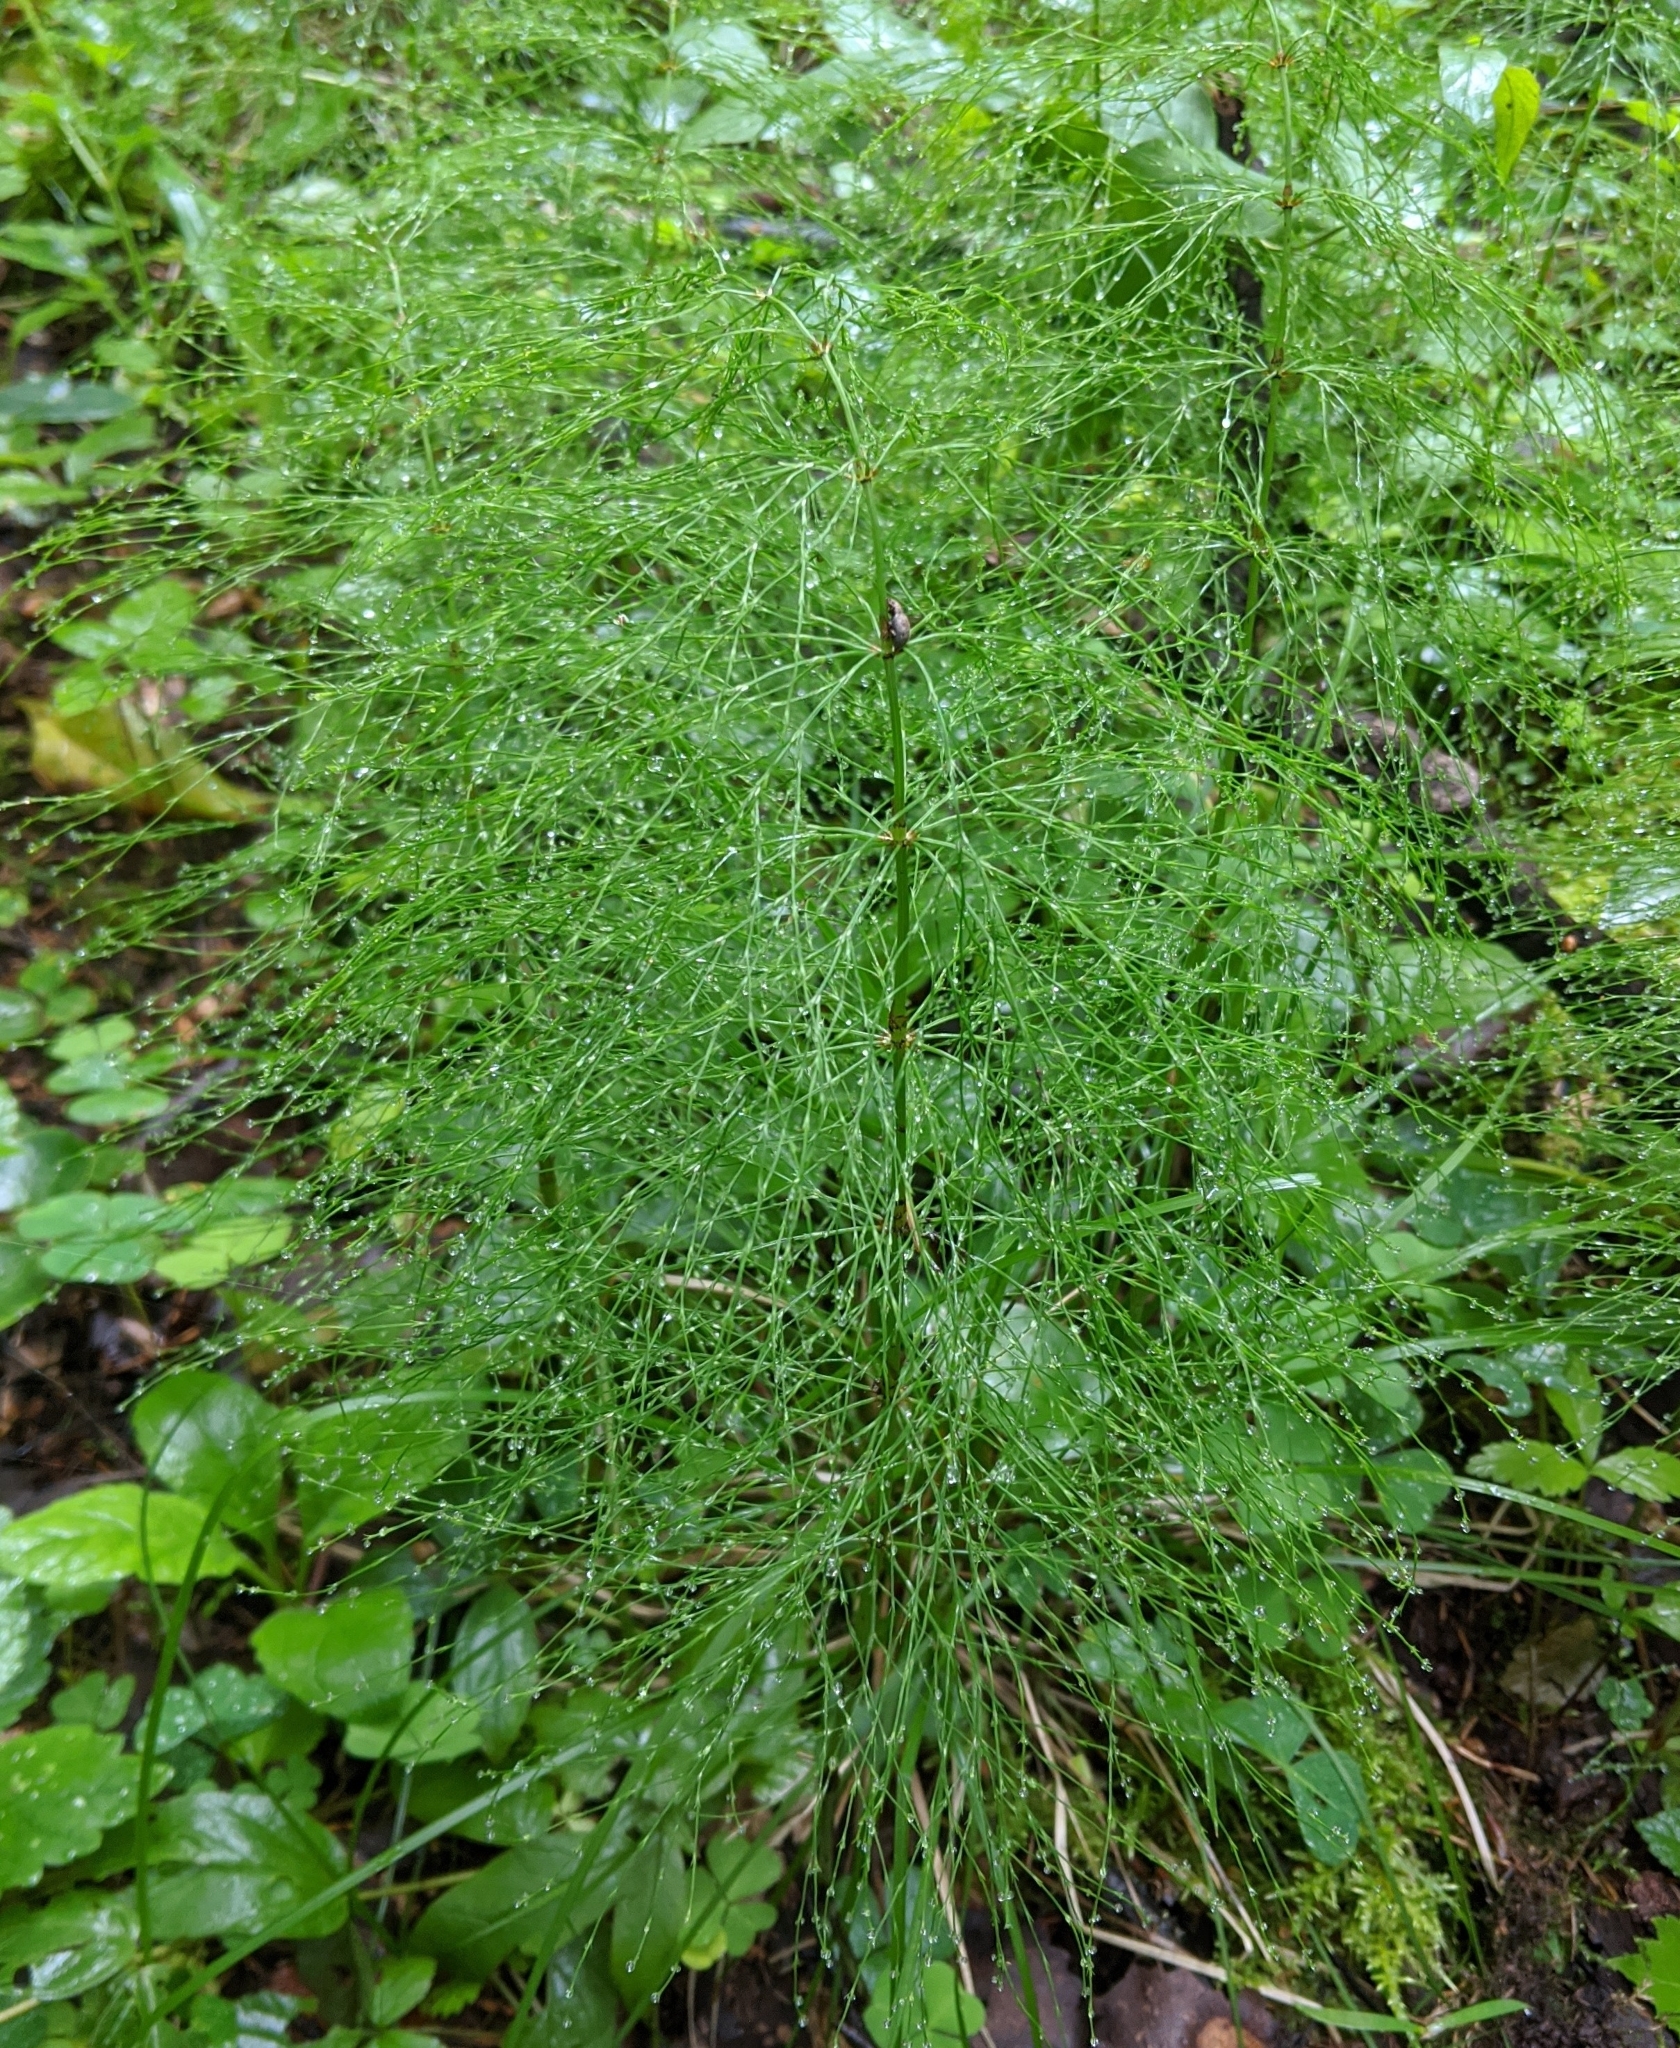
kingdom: Plantae
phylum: Tracheophyta
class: Polypodiopsida
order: Equisetales
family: Equisetaceae
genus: Equisetum
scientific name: Equisetum sylvaticum
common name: Wood horsetail
